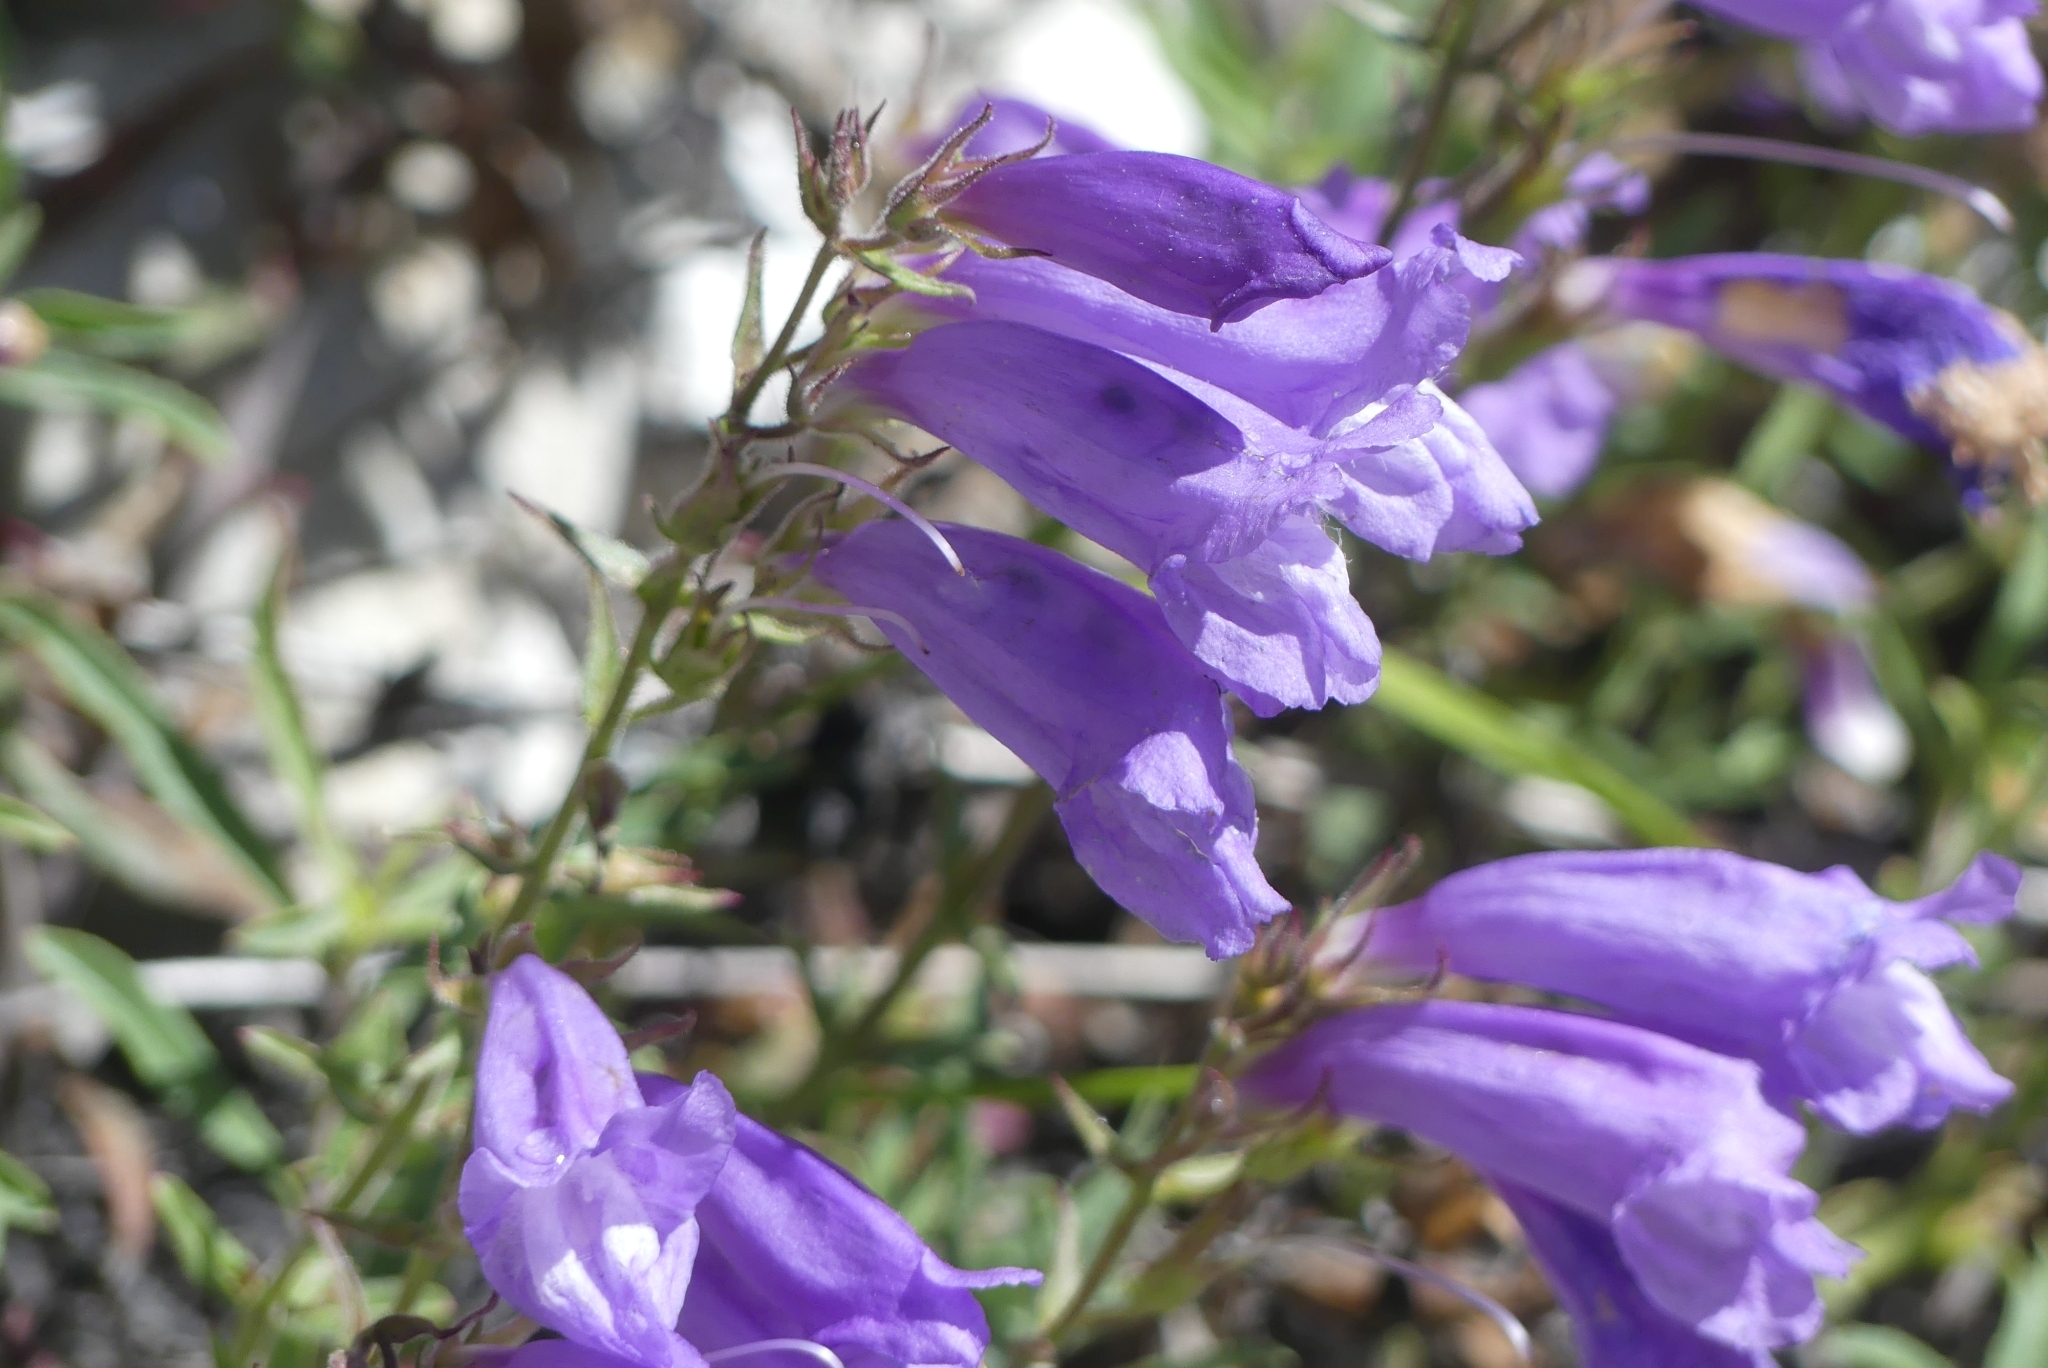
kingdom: Plantae
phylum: Tracheophyta
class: Magnoliopsida
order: Lamiales
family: Plantaginaceae
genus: Penstemon
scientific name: Penstemon fruticosus
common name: Bush penstemon
